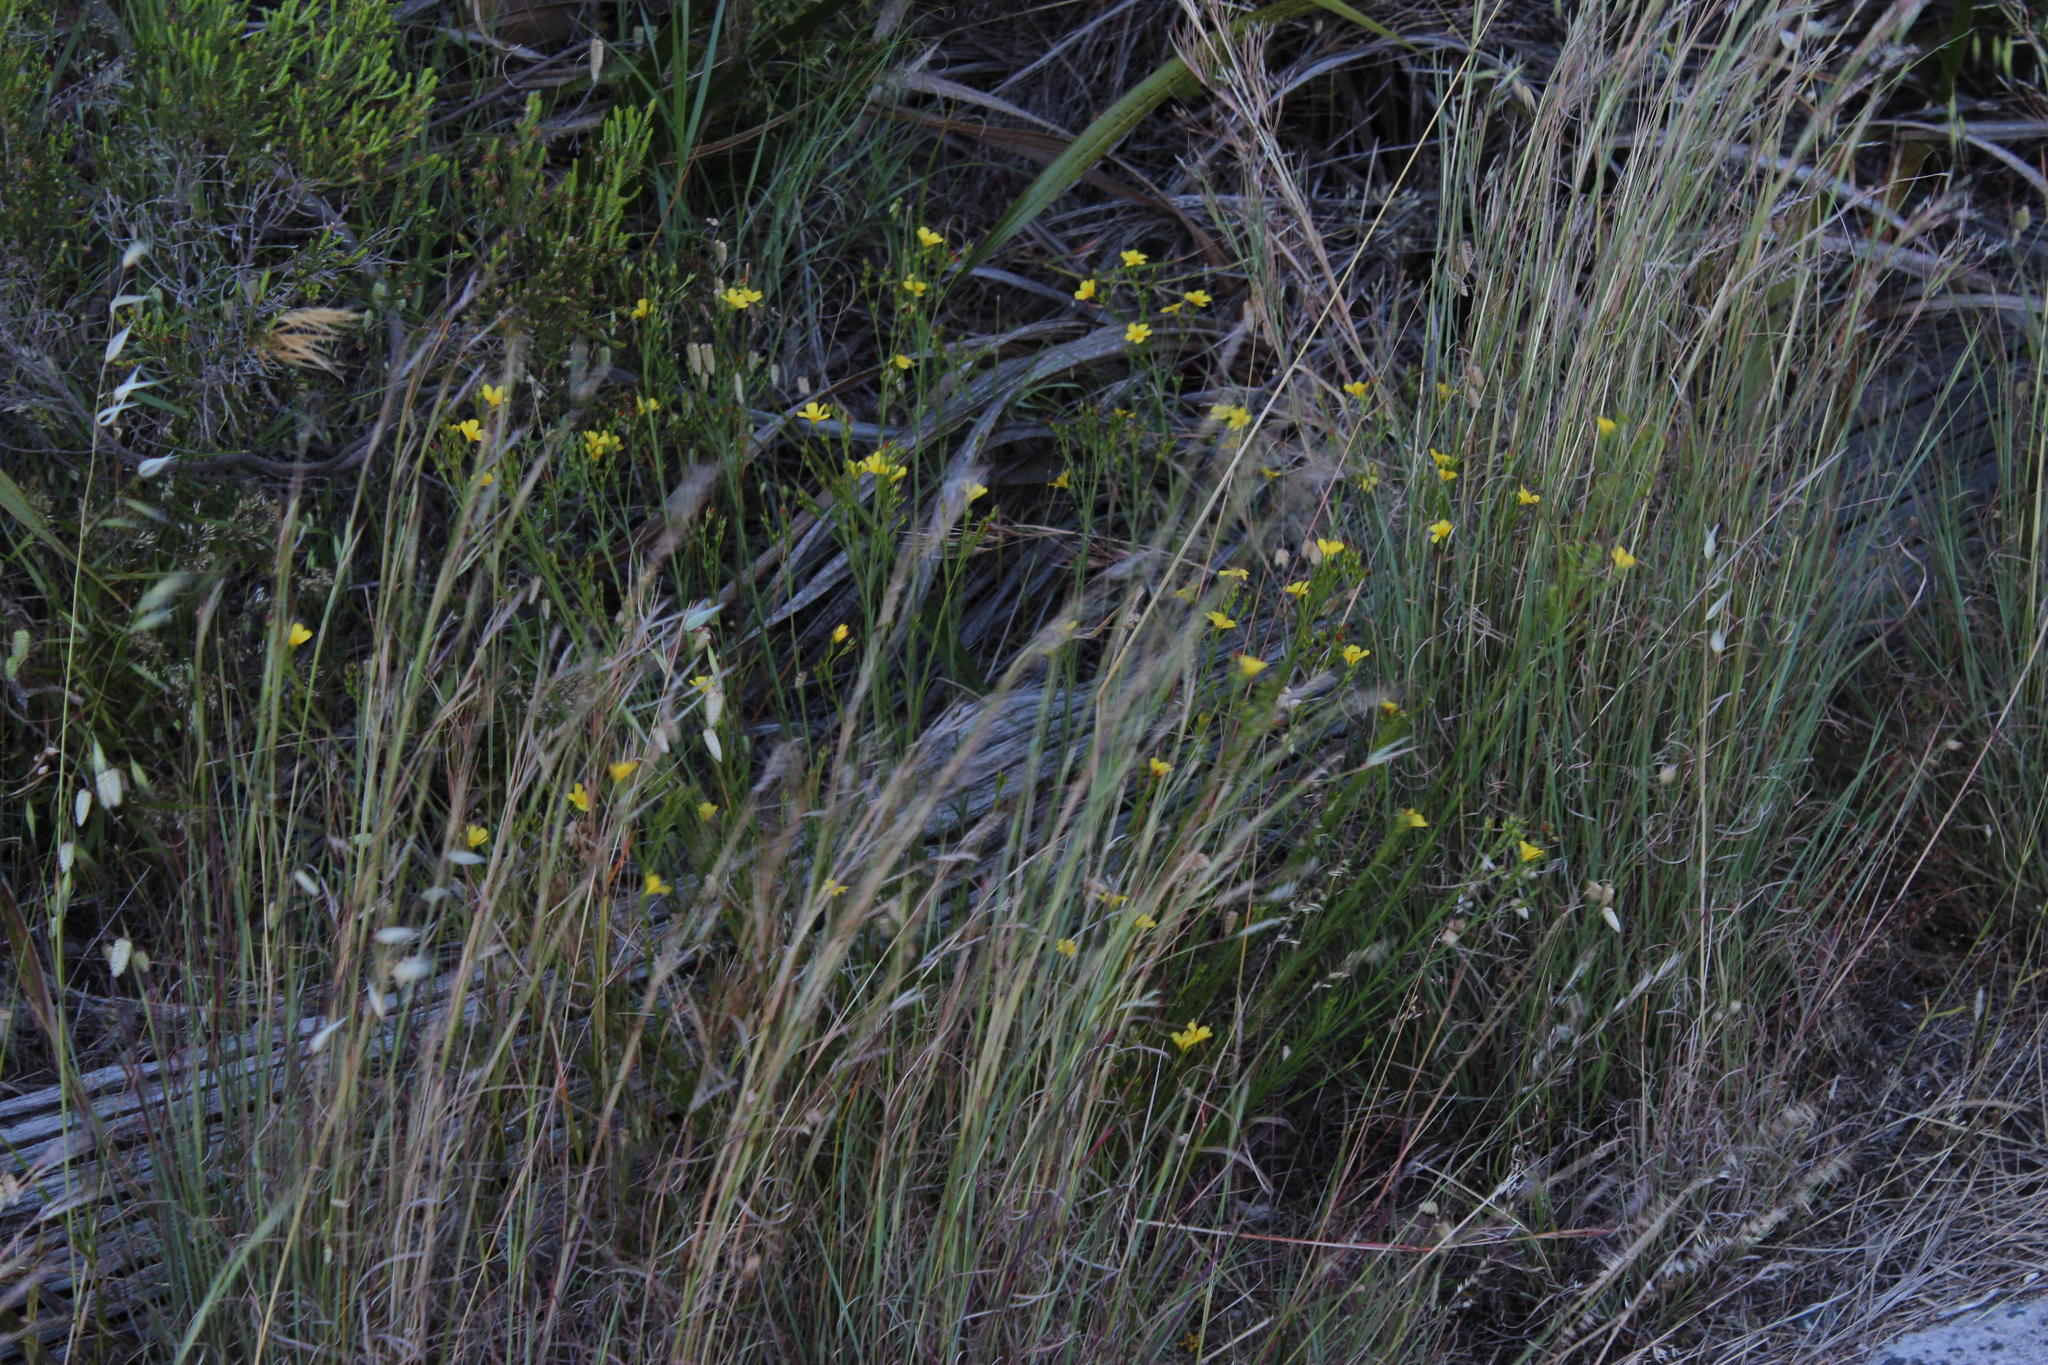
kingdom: Plantae
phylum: Tracheophyta
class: Magnoliopsida
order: Malpighiales
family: Linaceae
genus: Linum
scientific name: Linum africanum
